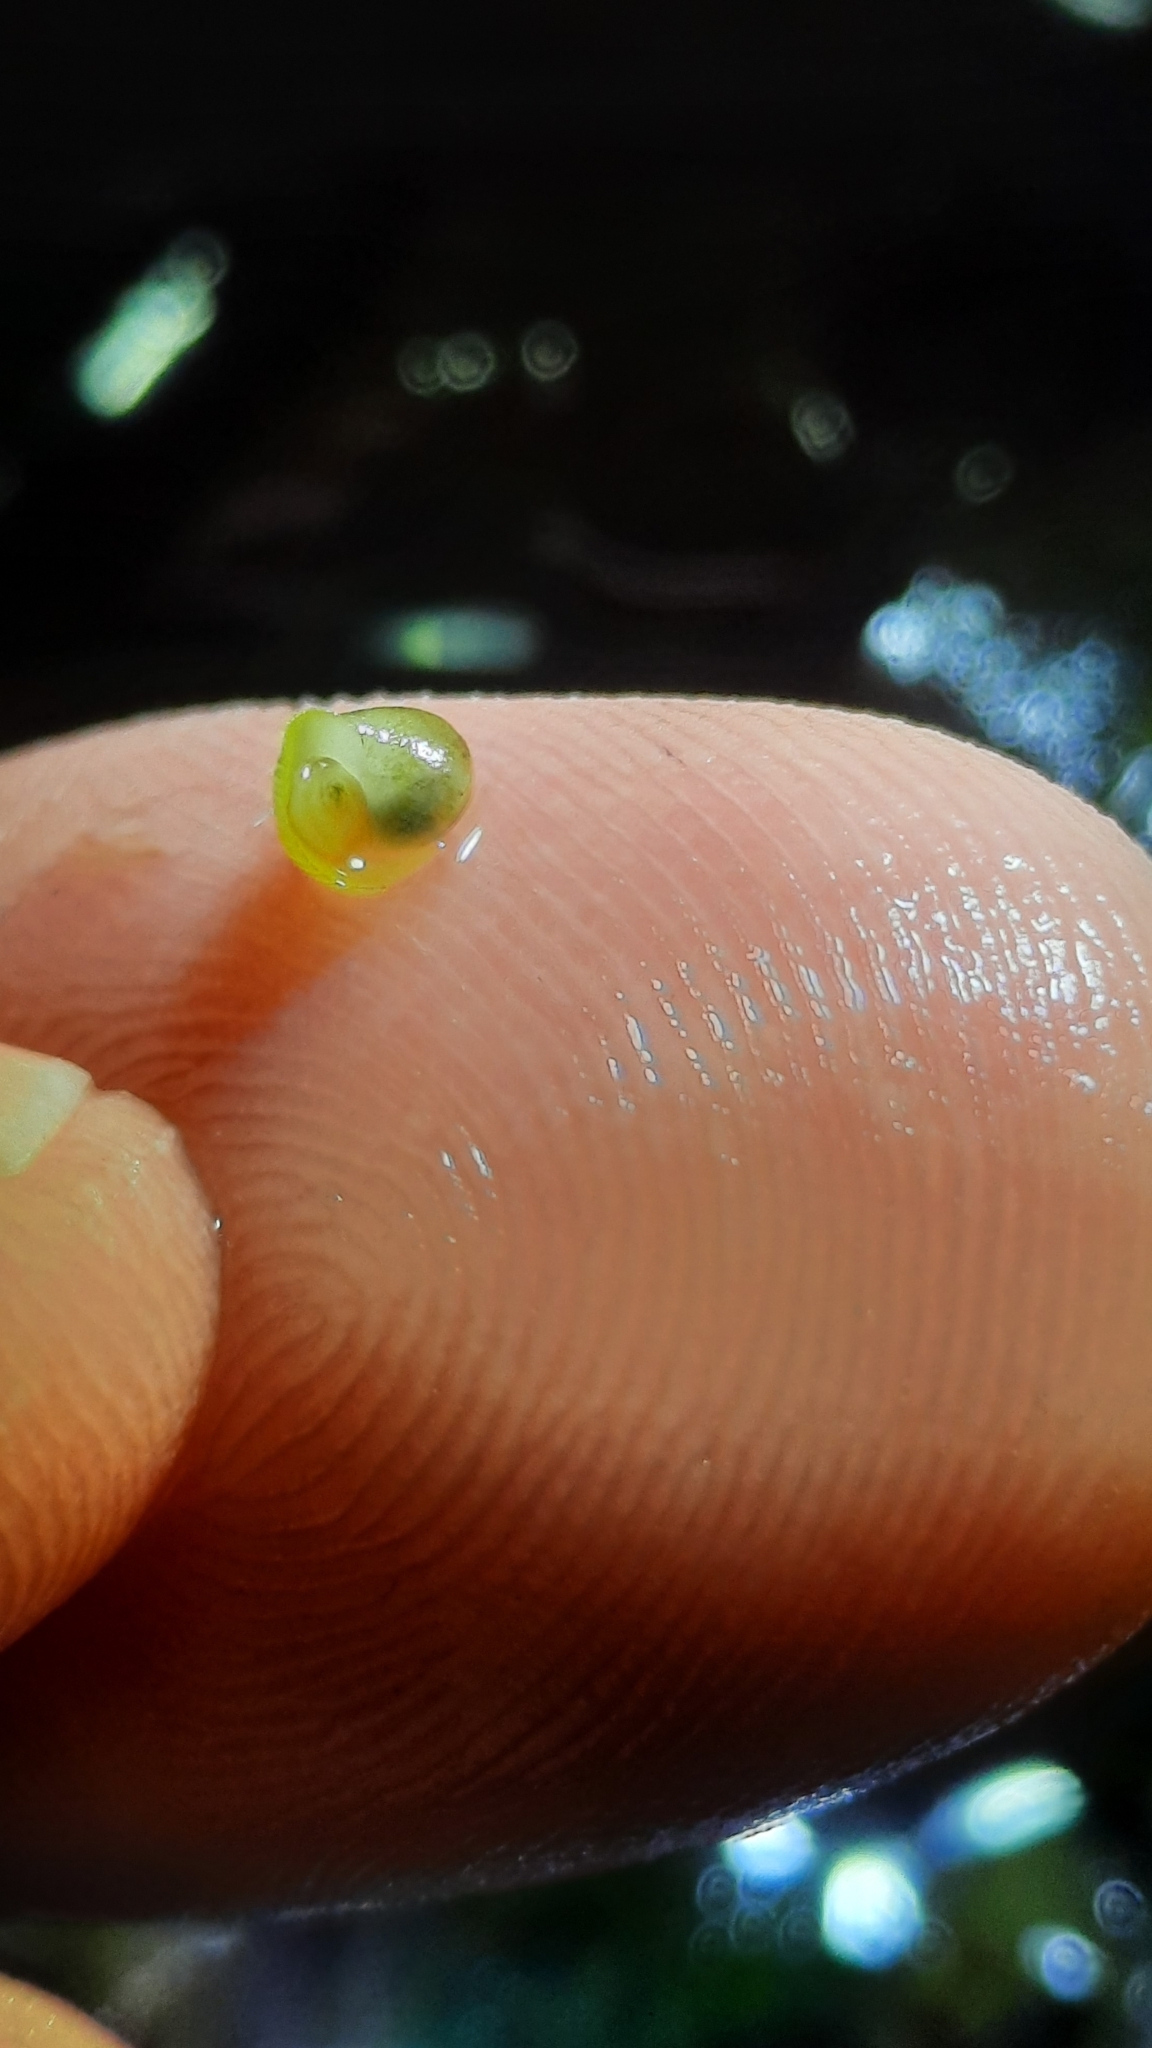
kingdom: Animalia
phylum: Mollusca
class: Gastropoda
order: Littorinimorpha
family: Littorinidae
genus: Littorina
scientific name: Littorina
